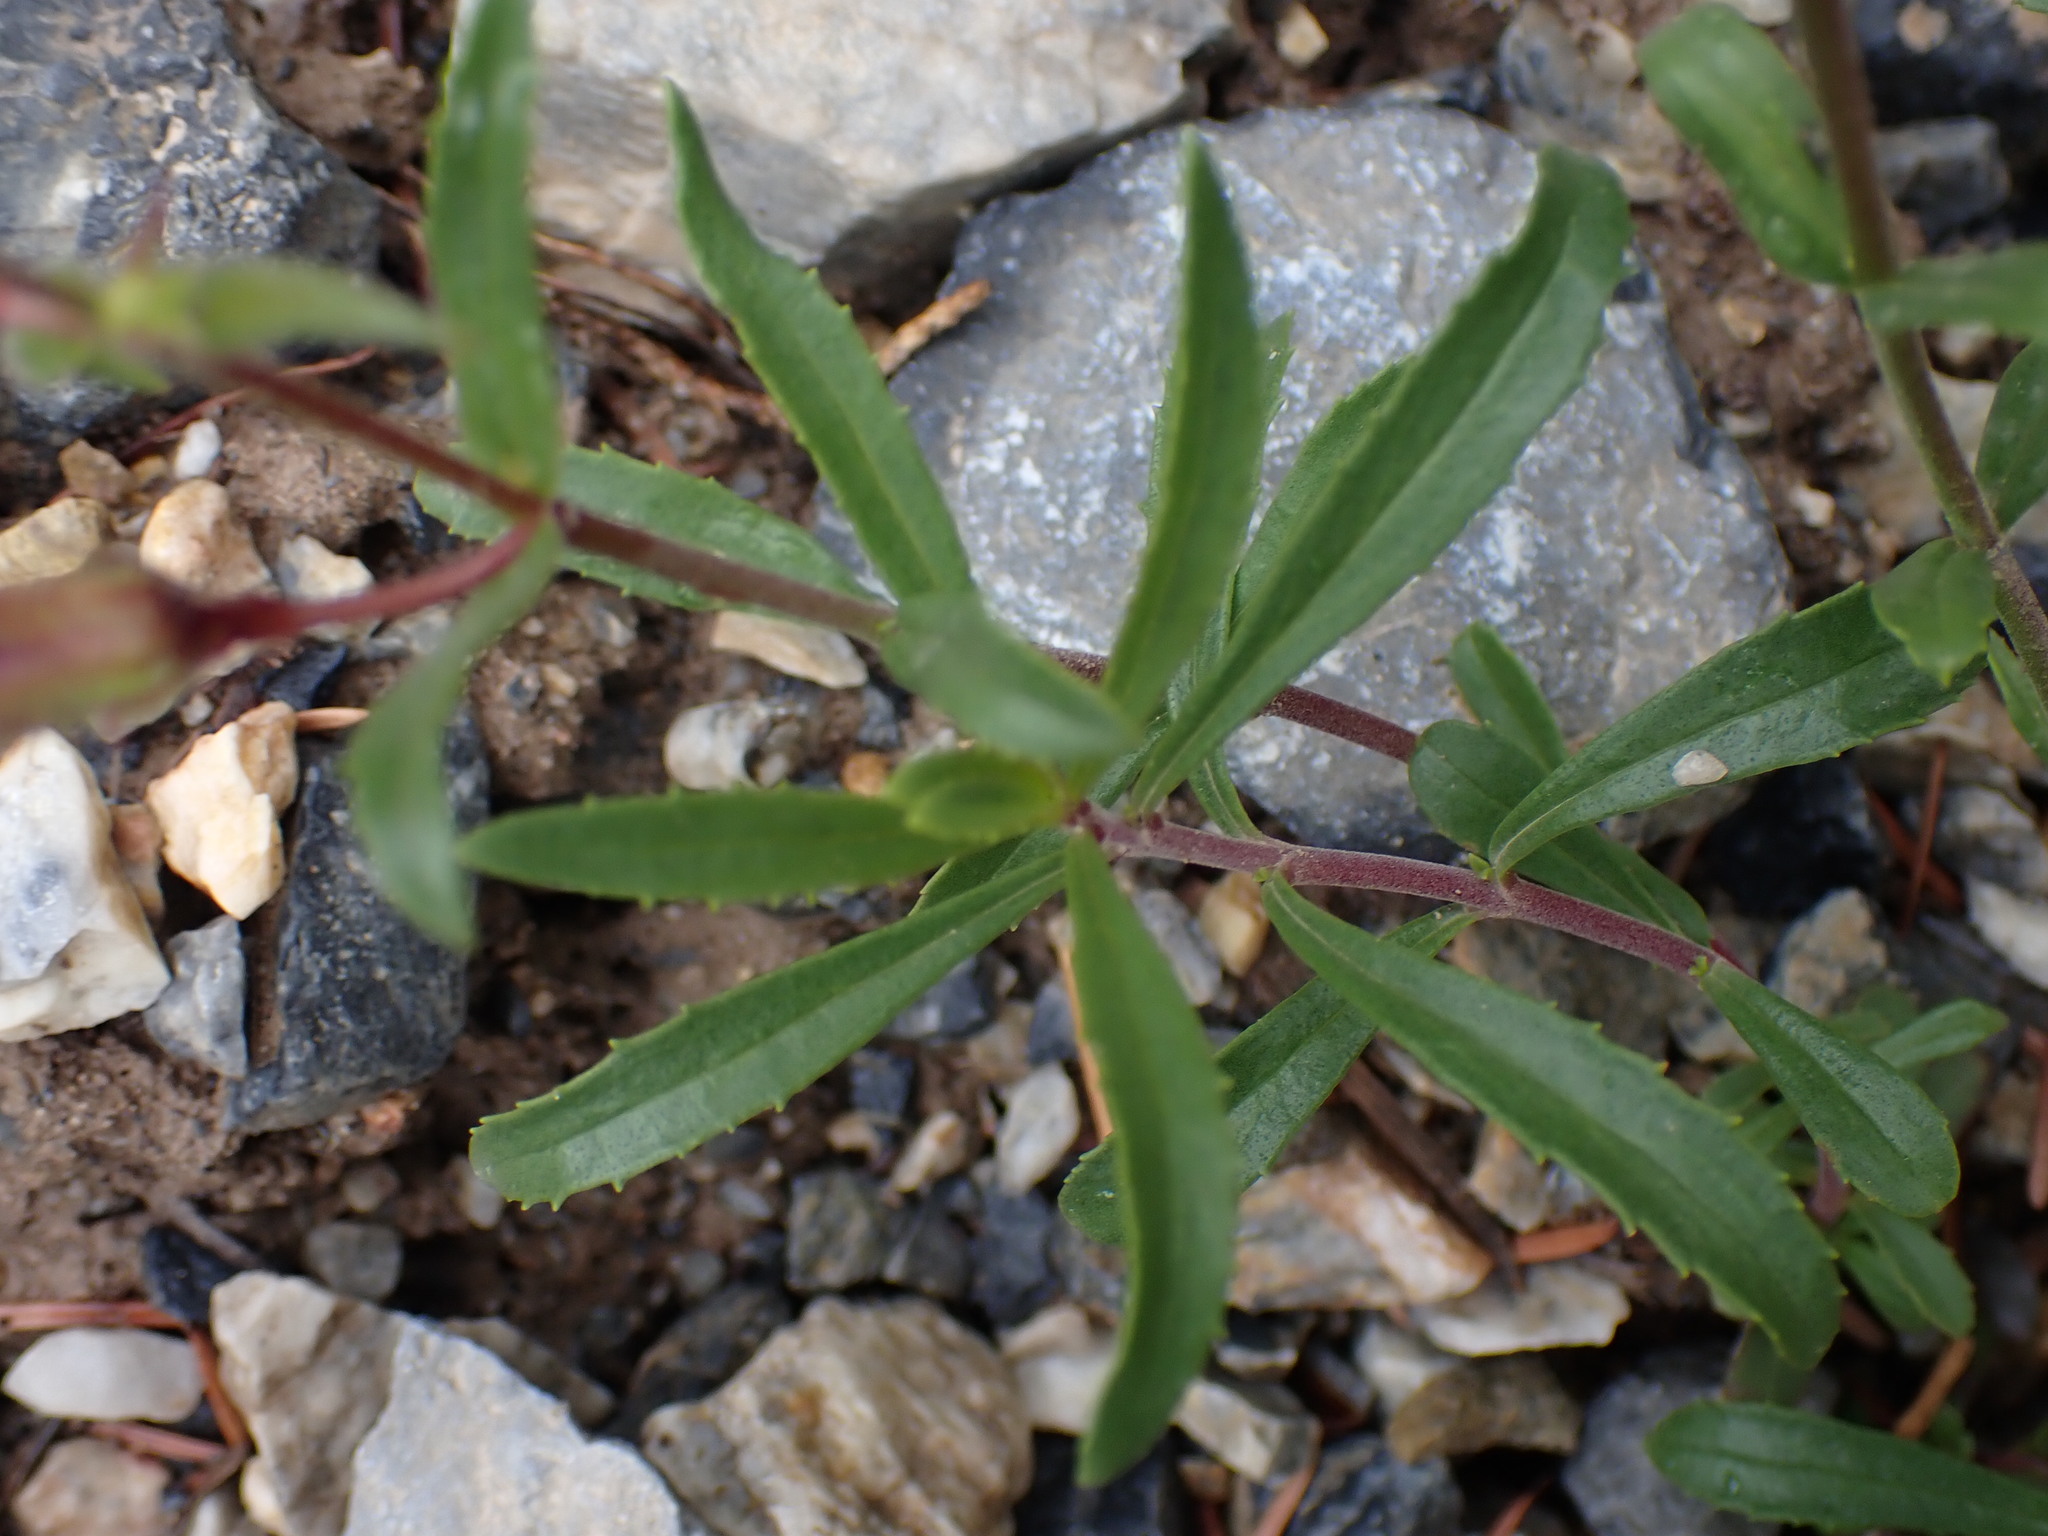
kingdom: Plantae
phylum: Tracheophyta
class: Magnoliopsida
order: Lamiales
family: Plantaginaceae
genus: Penstemon
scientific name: Penstemon fruticosus
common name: Bush penstemon
